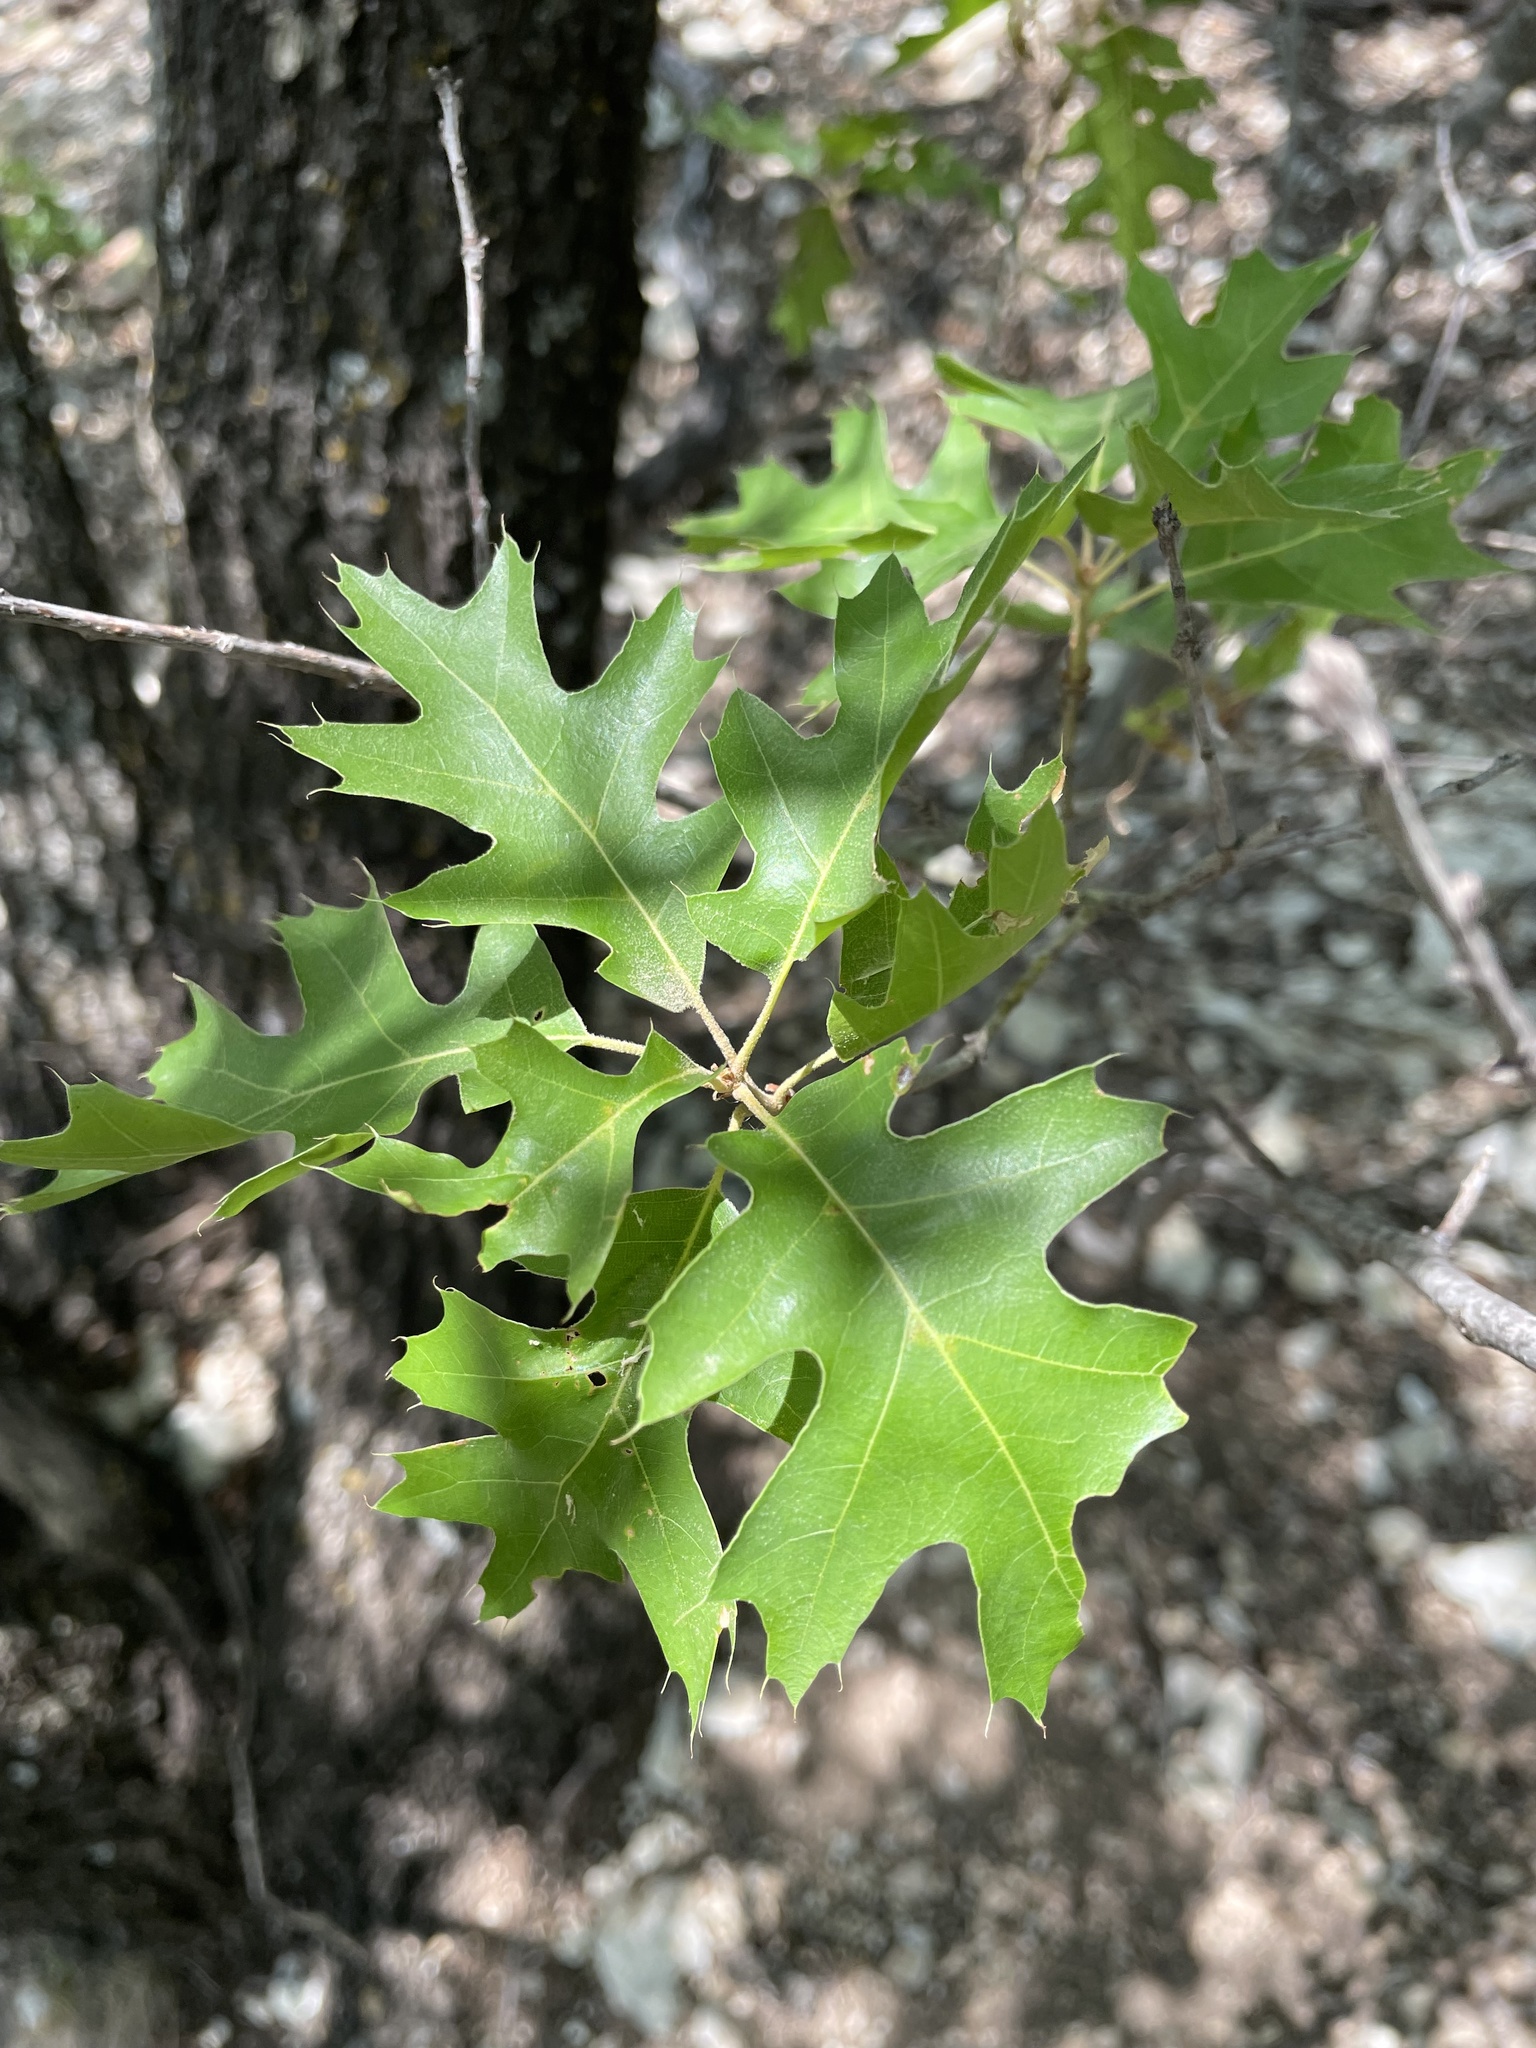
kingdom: Plantae
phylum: Tracheophyta
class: Magnoliopsida
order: Fagales
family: Fagaceae
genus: Quercus
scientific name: Quercus buckleyi
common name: Buckley oak
